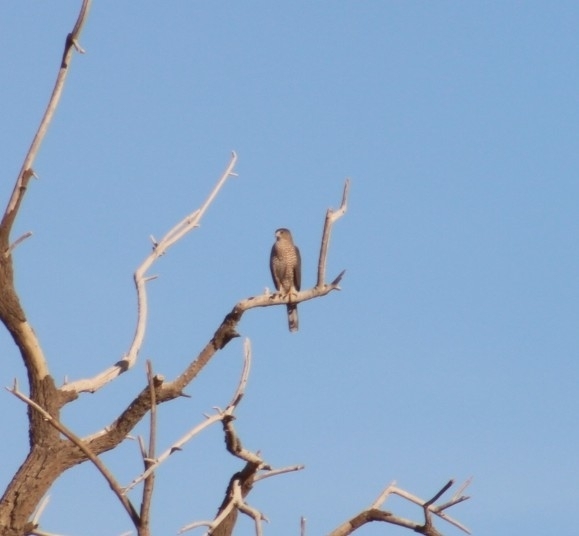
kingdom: Animalia
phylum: Chordata
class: Aves
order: Accipitriformes
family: Accipitridae
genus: Accipiter
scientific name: Accipiter cooperii
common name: Cooper's hawk
